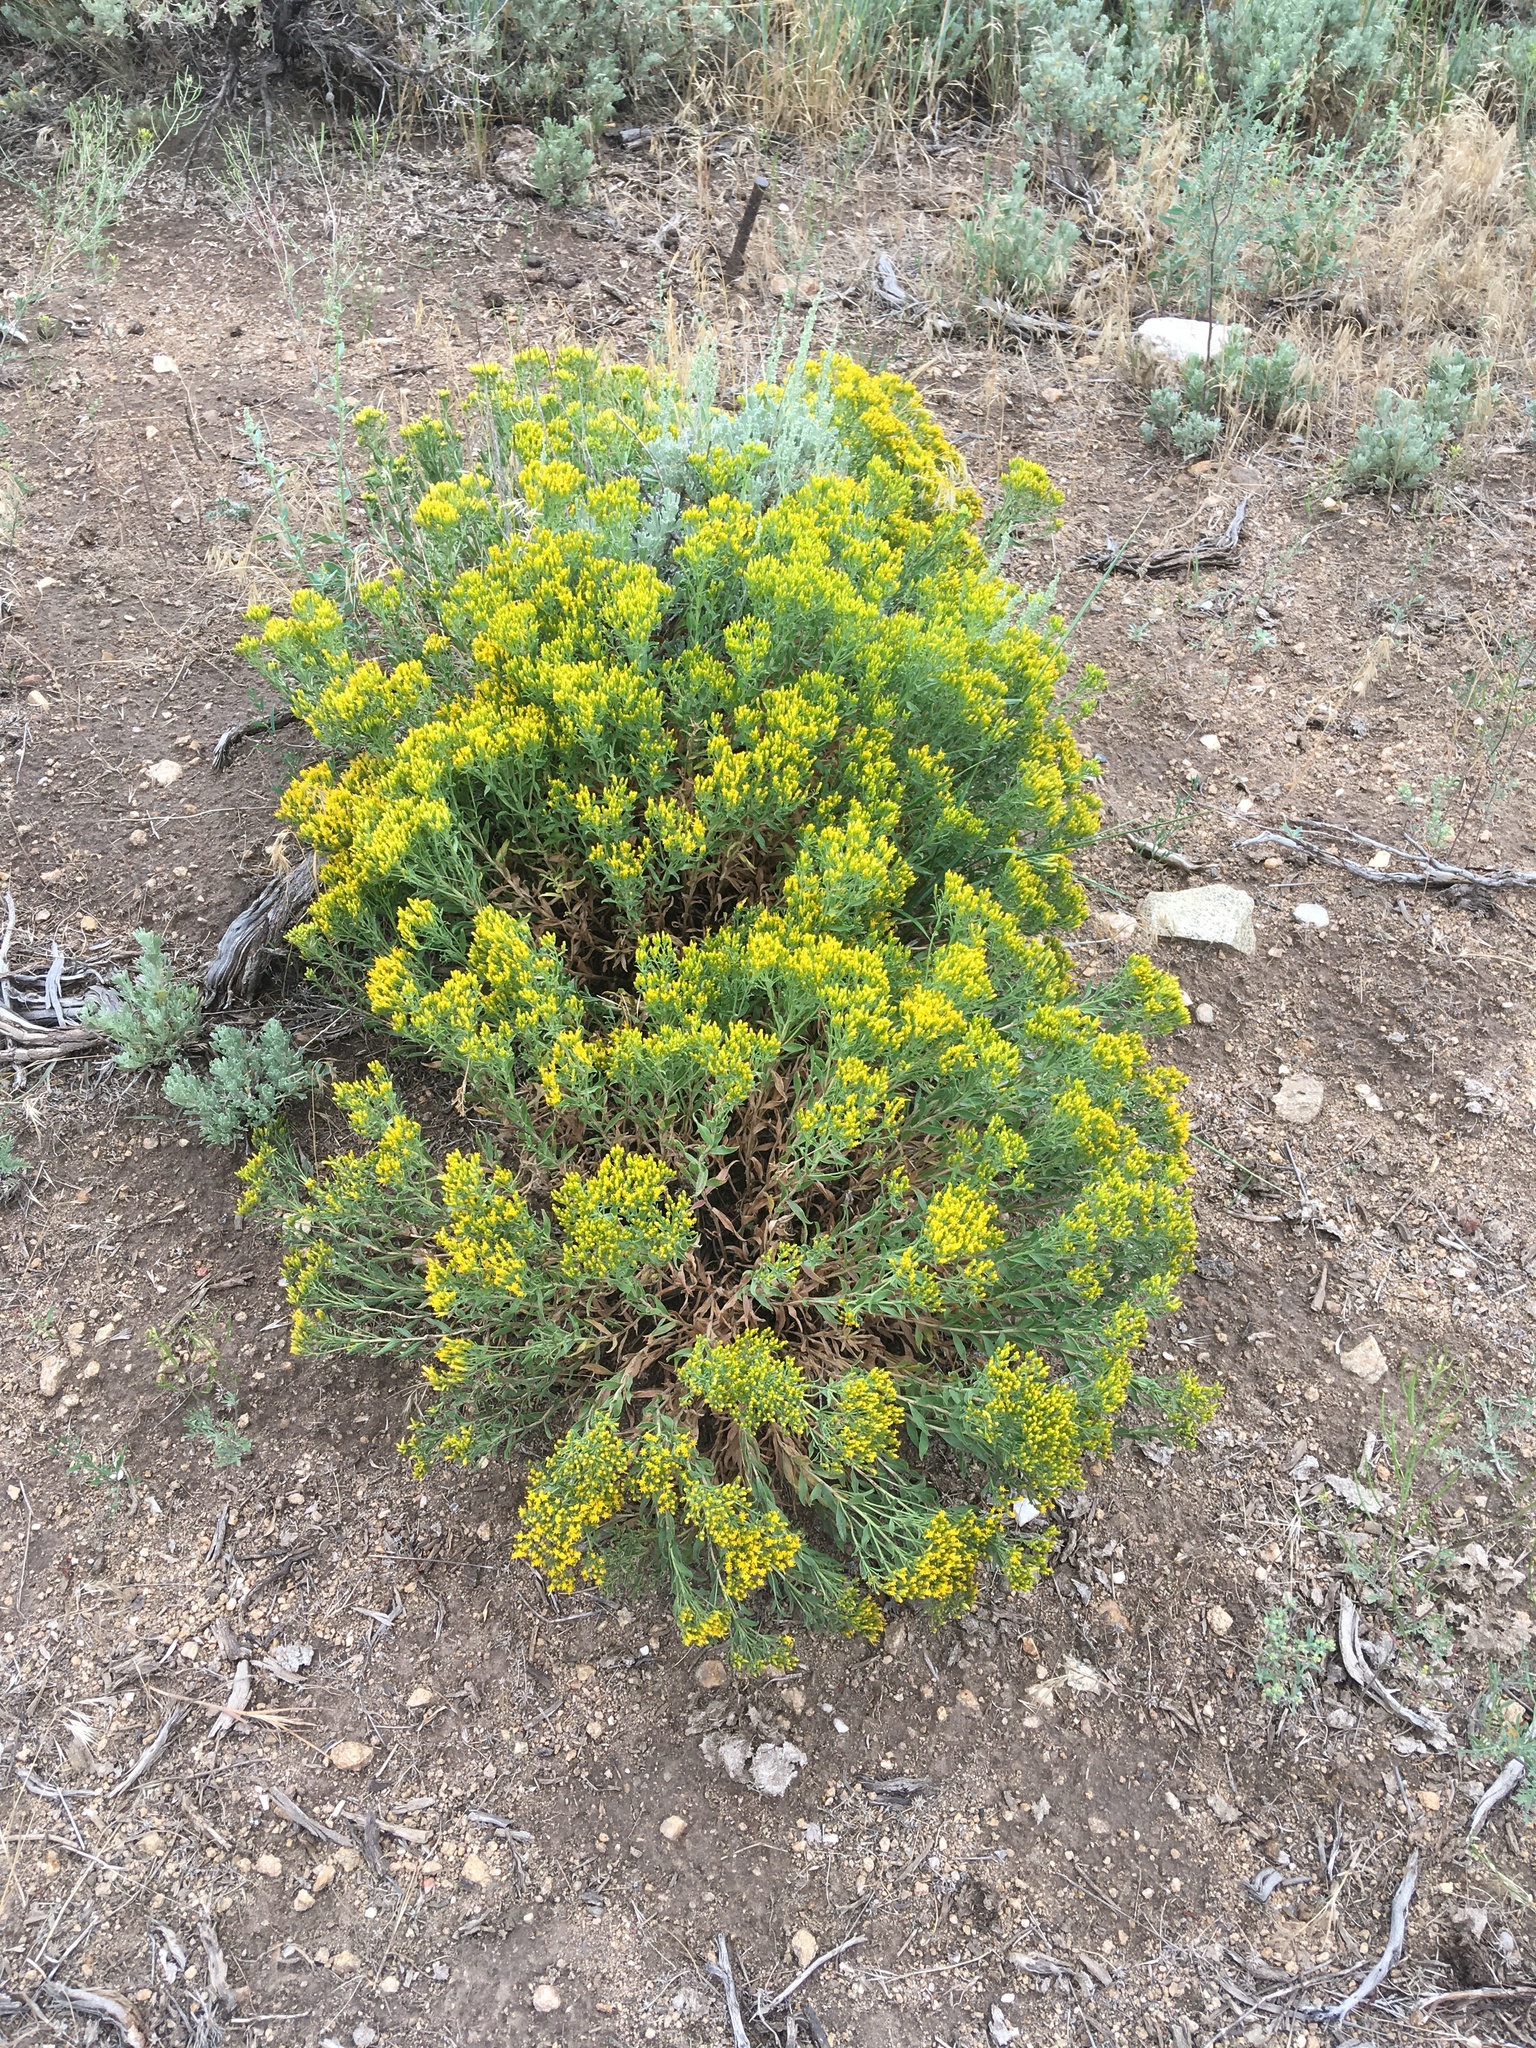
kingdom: Plantae
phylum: Tracheophyta
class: Magnoliopsida
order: Asterales
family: Asteraceae
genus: Chrysothamnus
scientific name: Chrysothamnus viscidiflorus
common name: Yellow rabbitbrush
